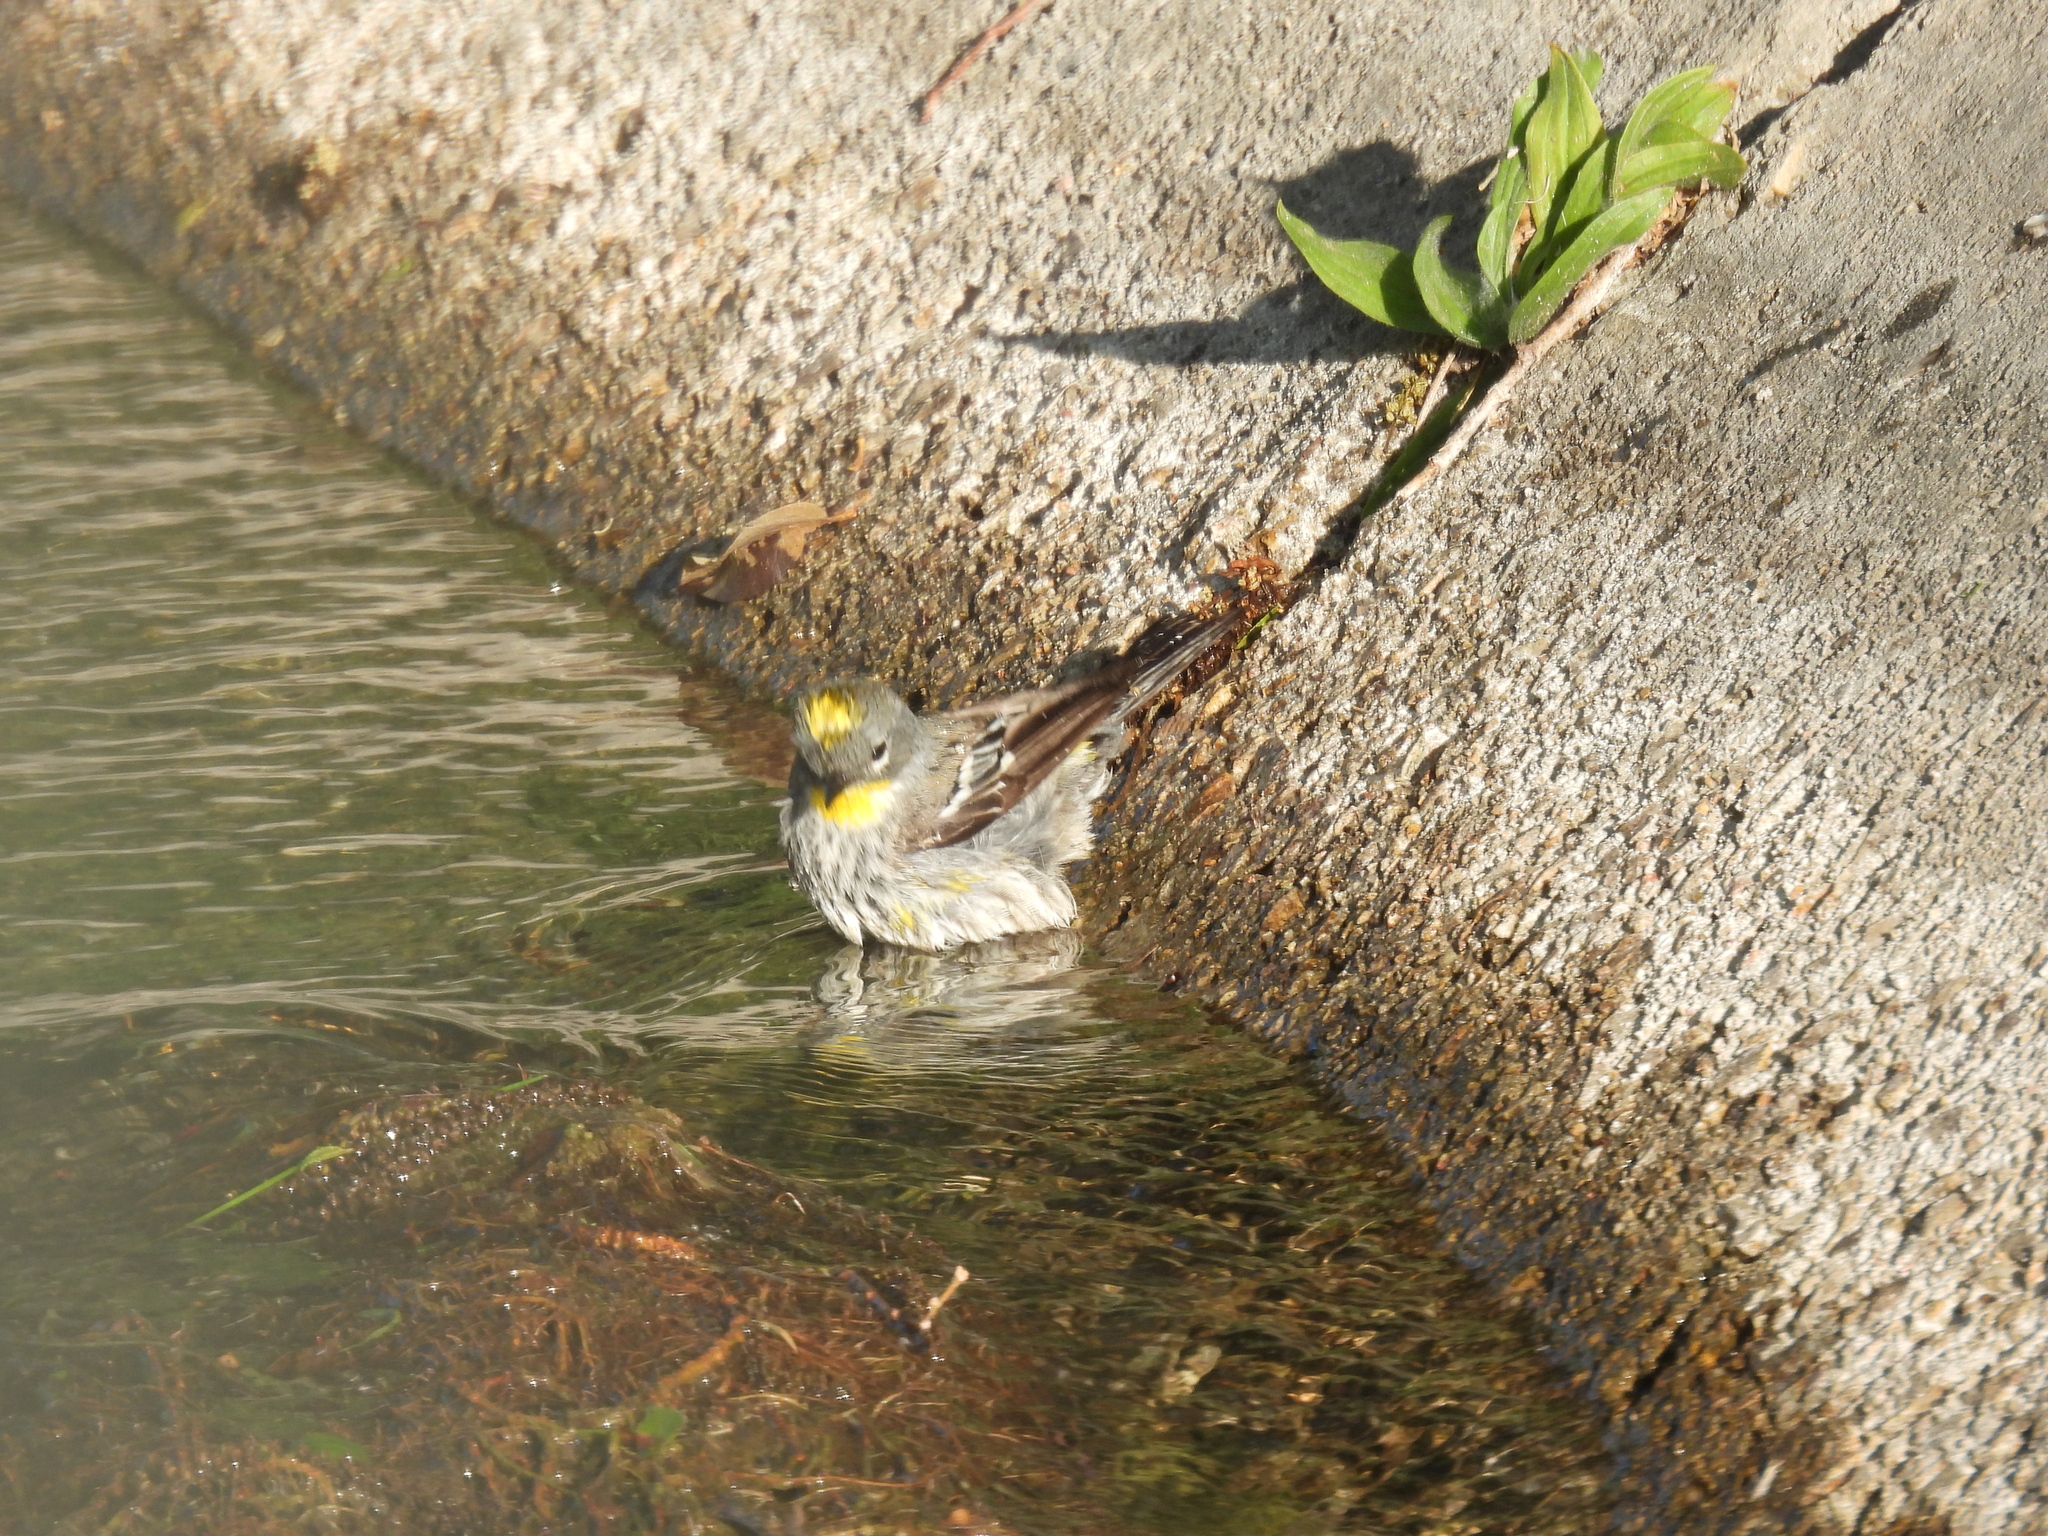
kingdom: Animalia
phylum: Chordata
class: Aves
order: Passeriformes
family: Parulidae
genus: Setophaga
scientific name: Setophaga auduboni
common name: Audubon's warbler
